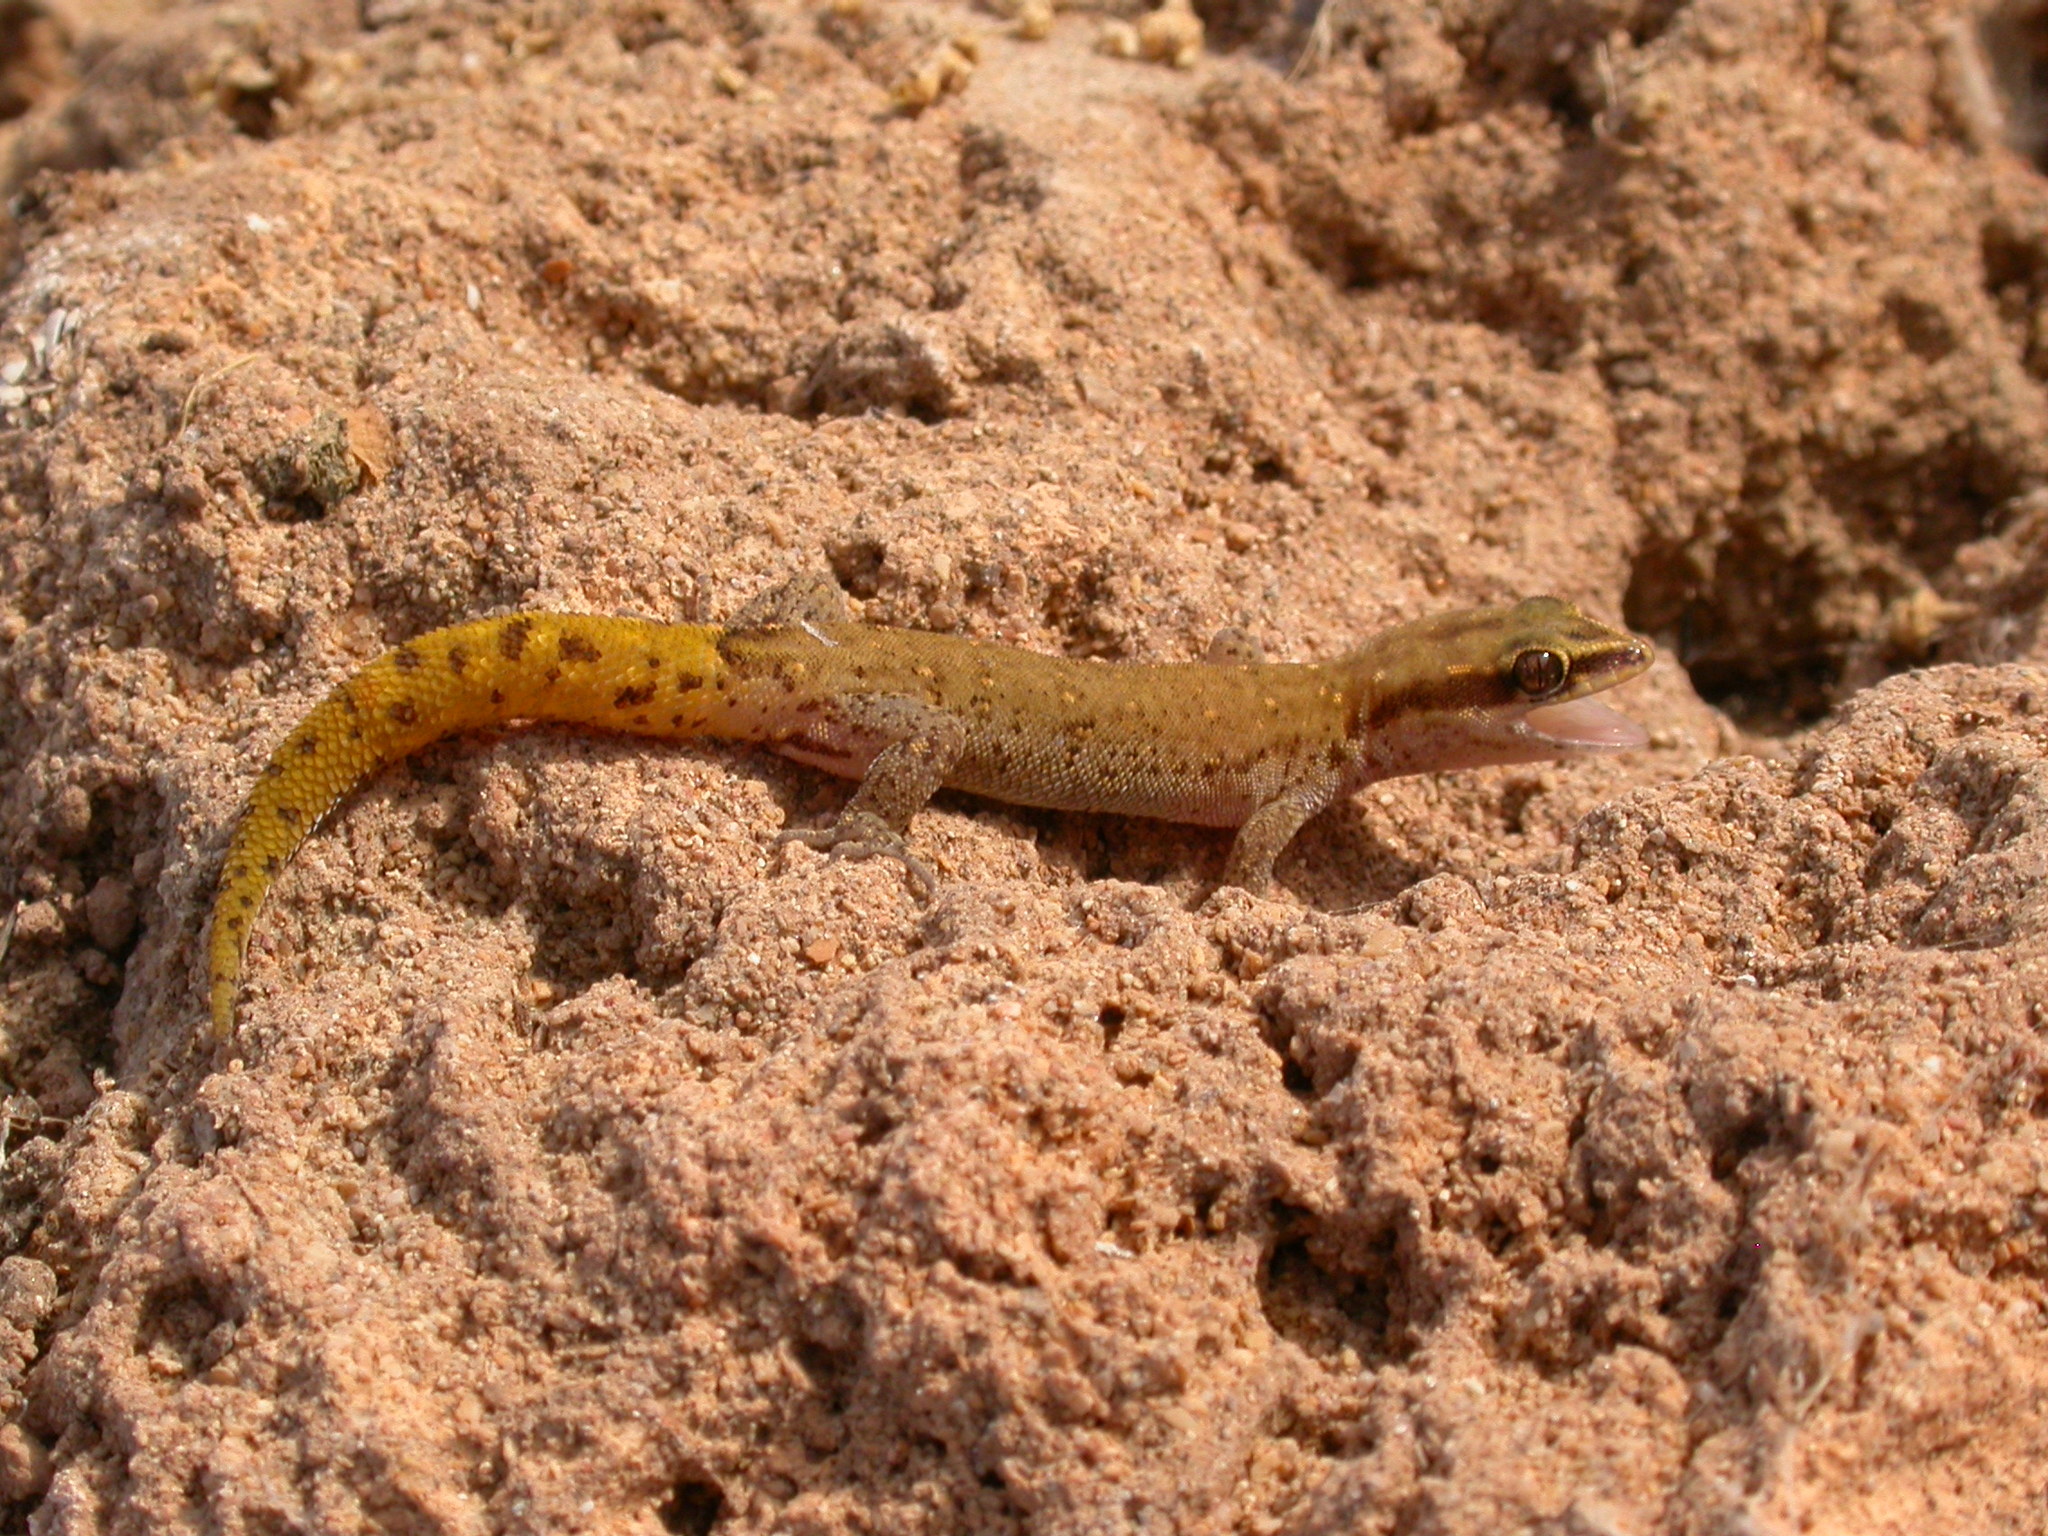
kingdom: Animalia
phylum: Chordata
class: Squamata
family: Sphaerodactylidae
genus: Saurodactylus
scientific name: Saurodactylus brosseti
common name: Morocco lizard-fingered gecko
